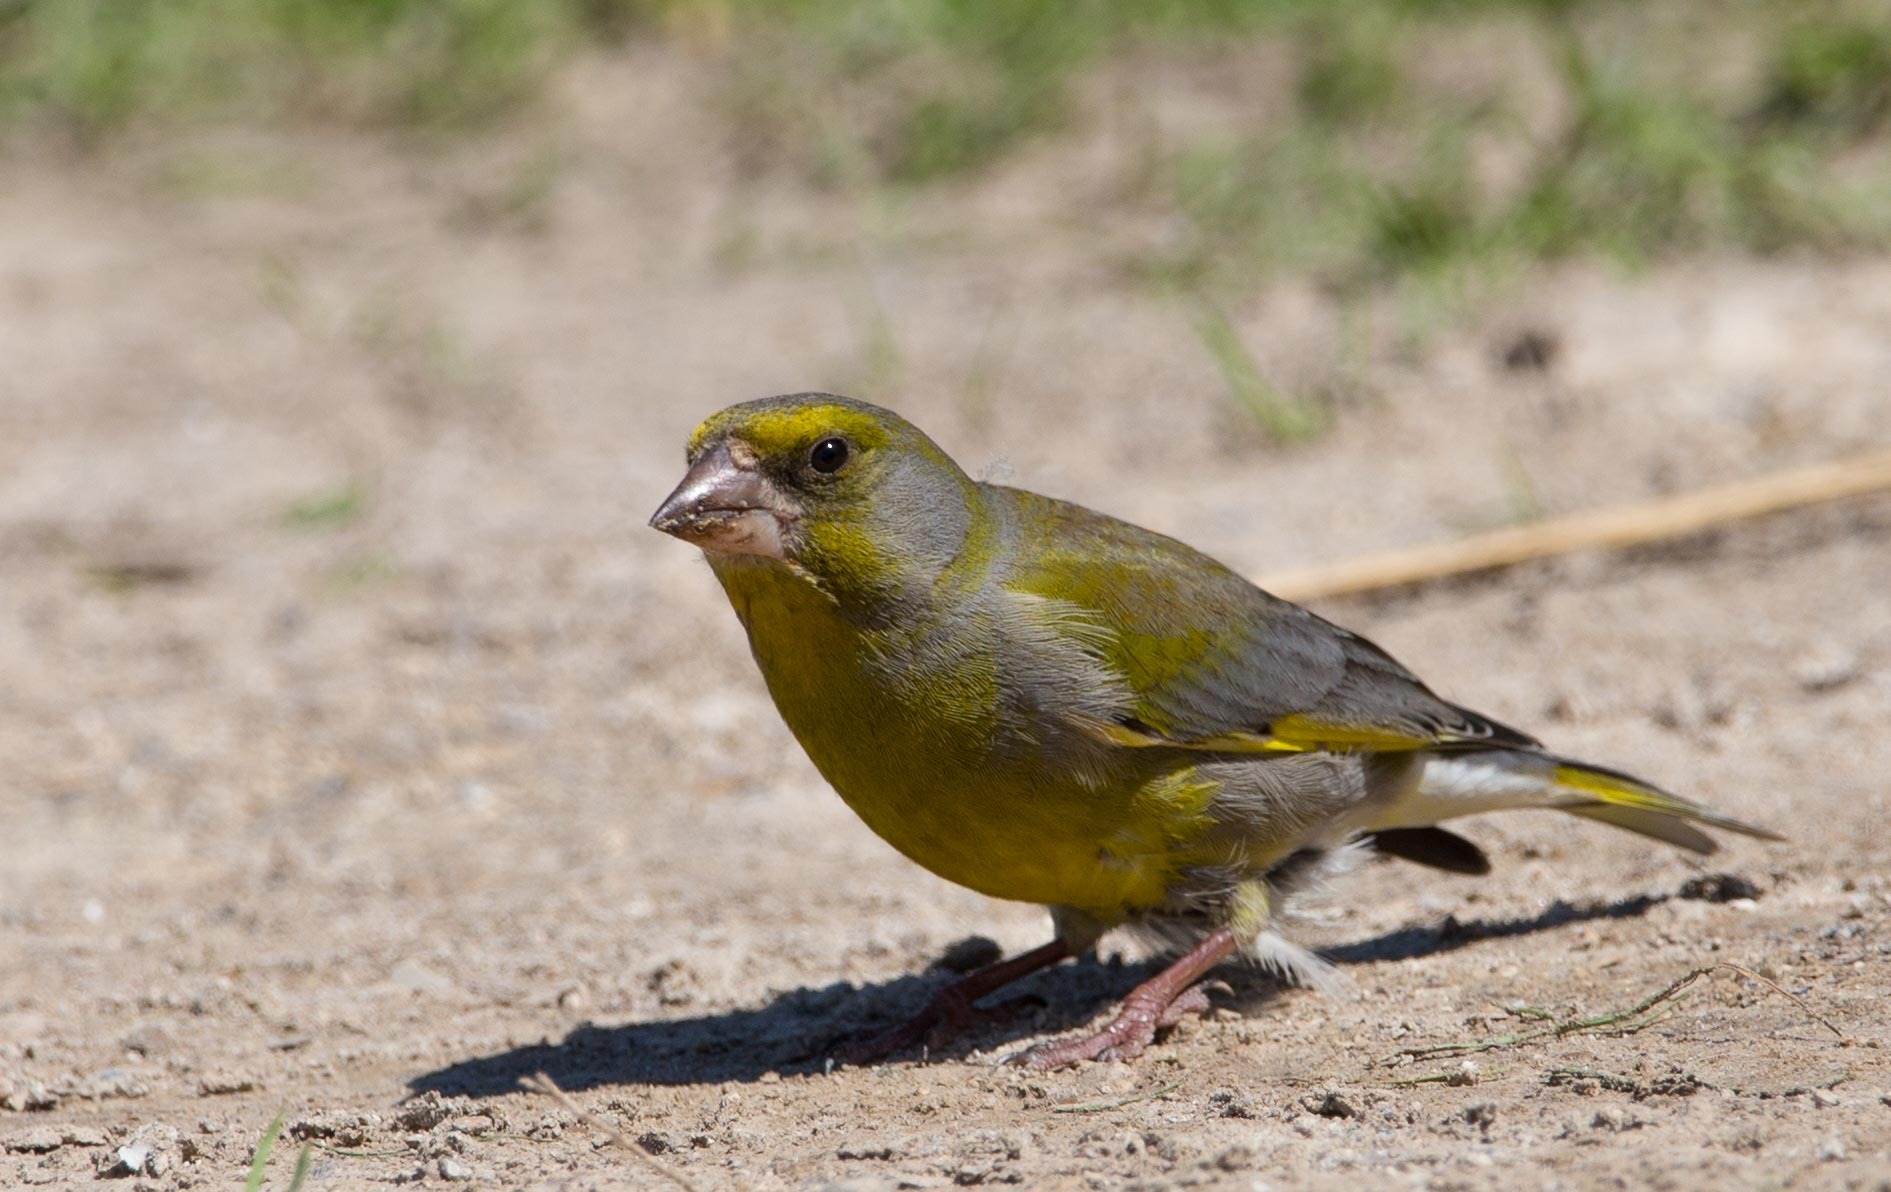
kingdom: Plantae
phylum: Tracheophyta
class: Liliopsida
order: Poales
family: Poaceae
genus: Chloris
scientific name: Chloris chloris
